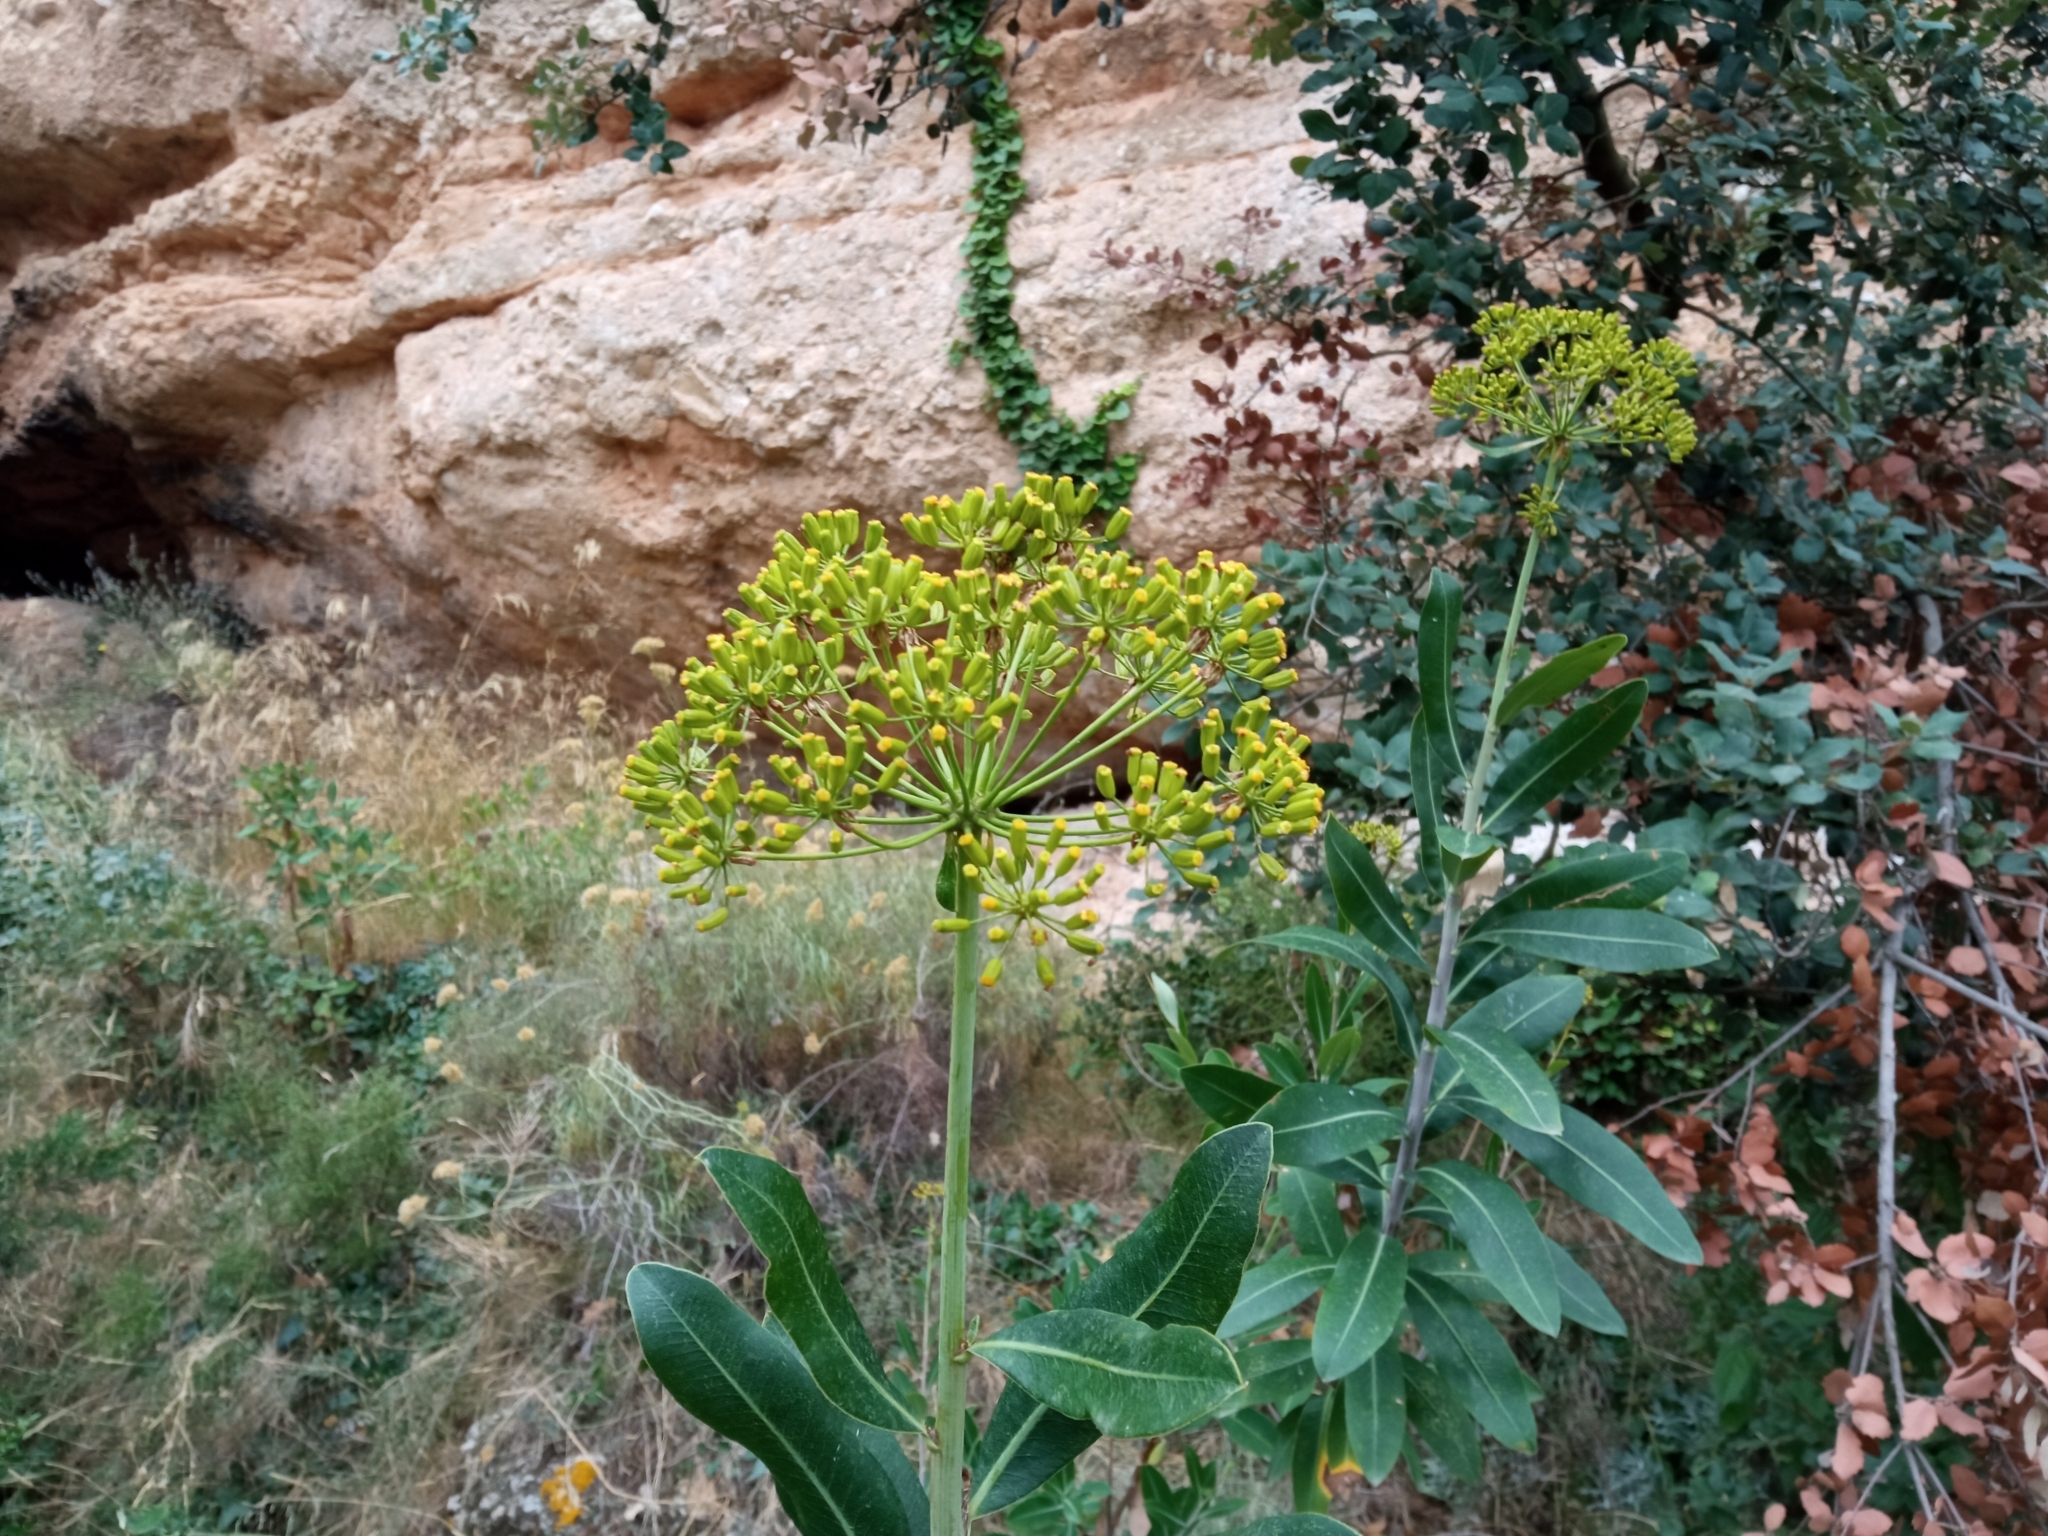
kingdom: Plantae
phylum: Tracheophyta
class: Magnoliopsida
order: Apiales
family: Apiaceae
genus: Bupleurum
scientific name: Bupleurum fruticosum
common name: Shrubby hare's-ear
